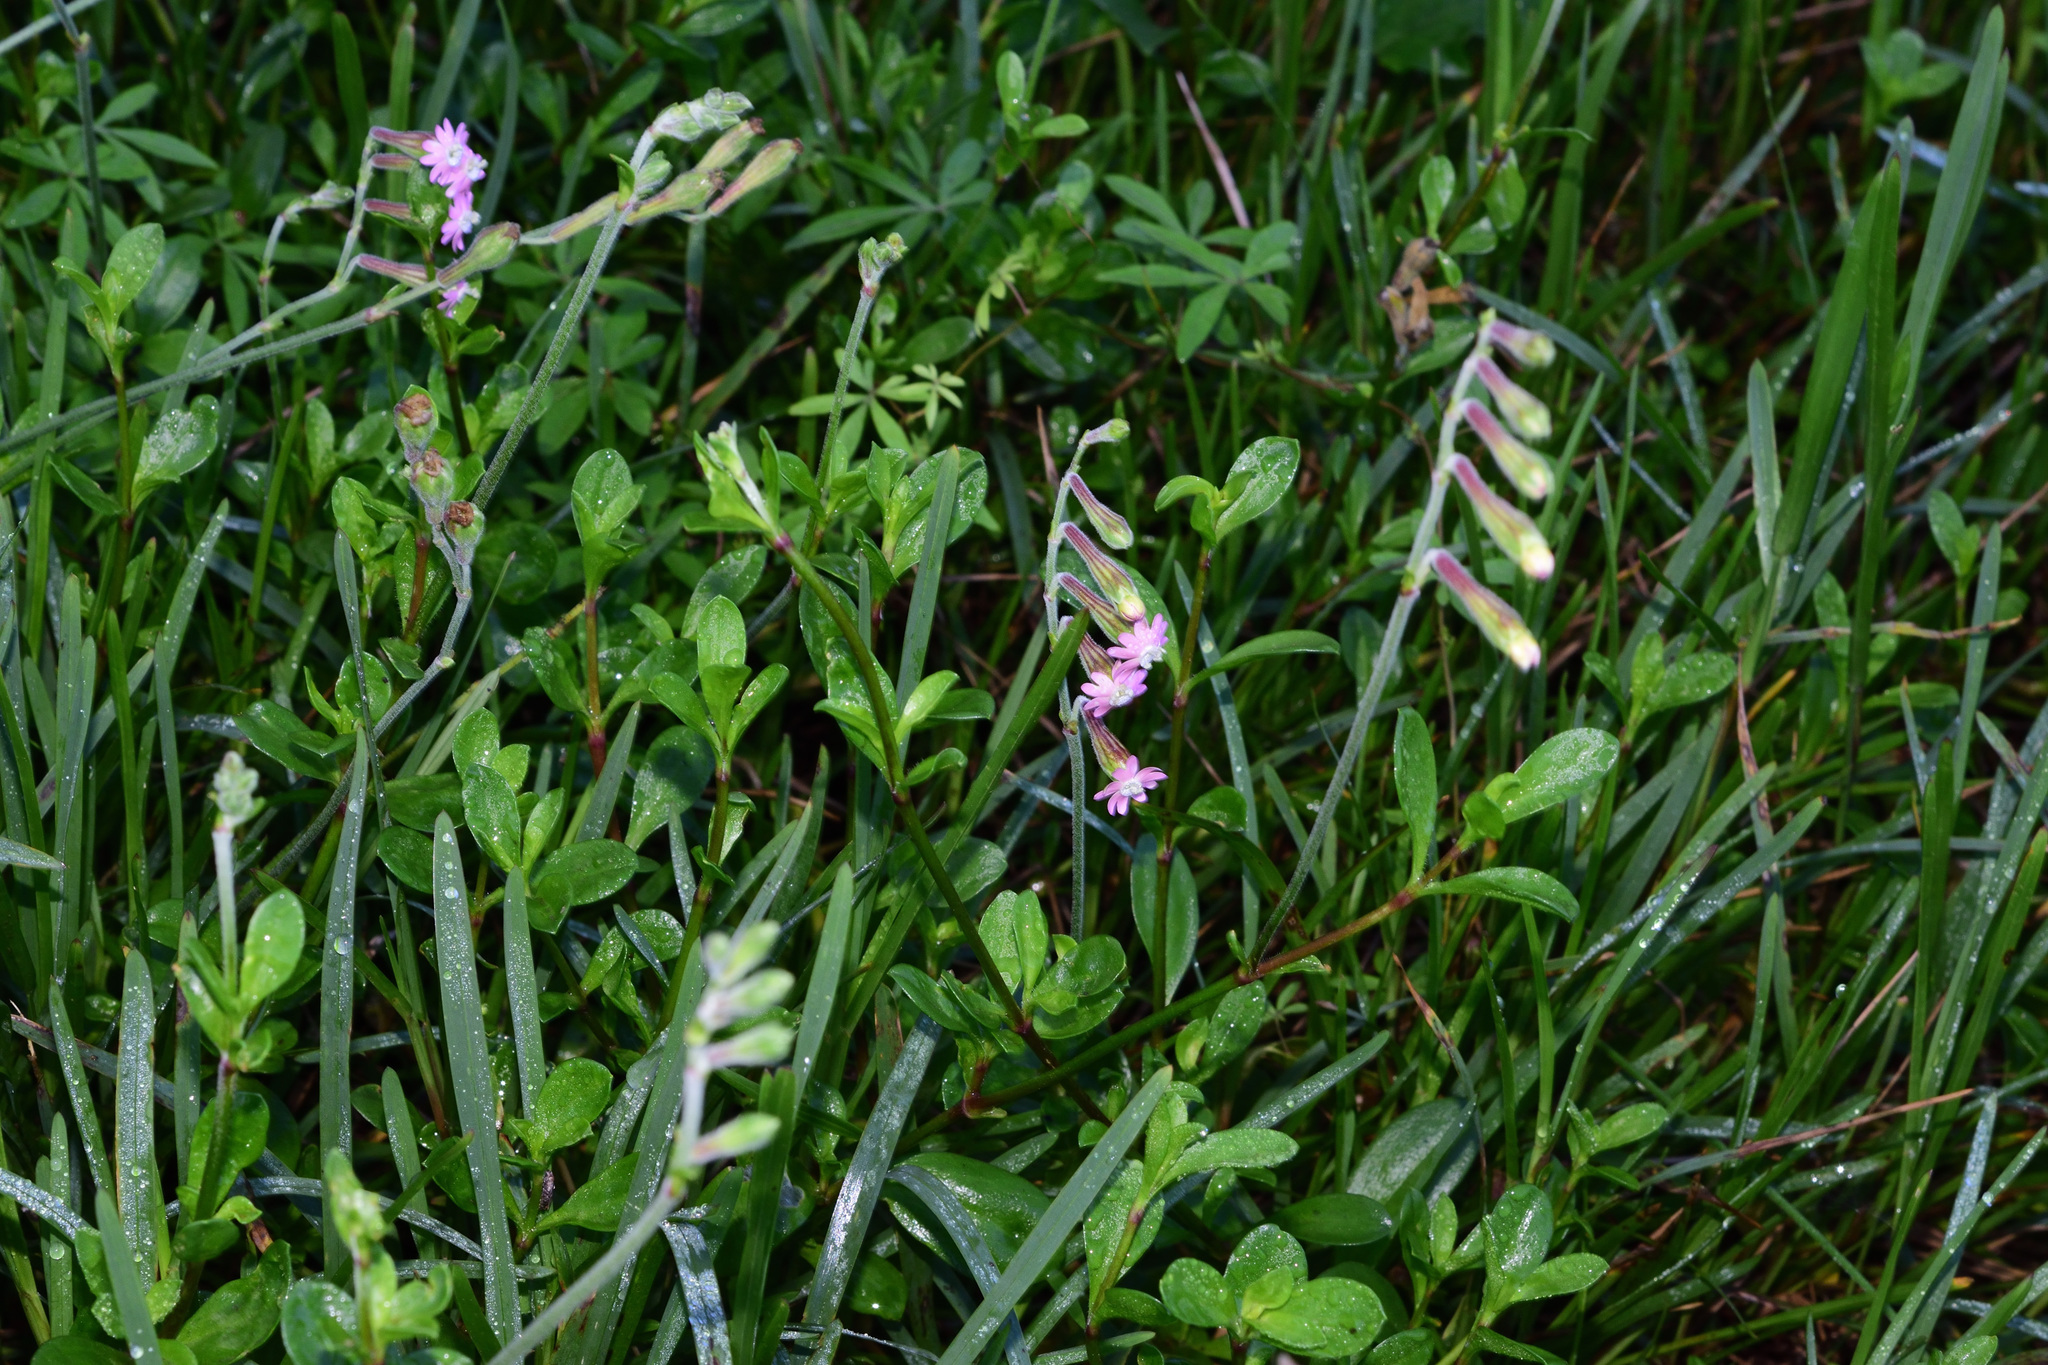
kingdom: Plantae
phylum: Tracheophyta
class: Magnoliopsida
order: Caryophyllales
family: Caryophyllaceae
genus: Silene
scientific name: Silene burchellii
